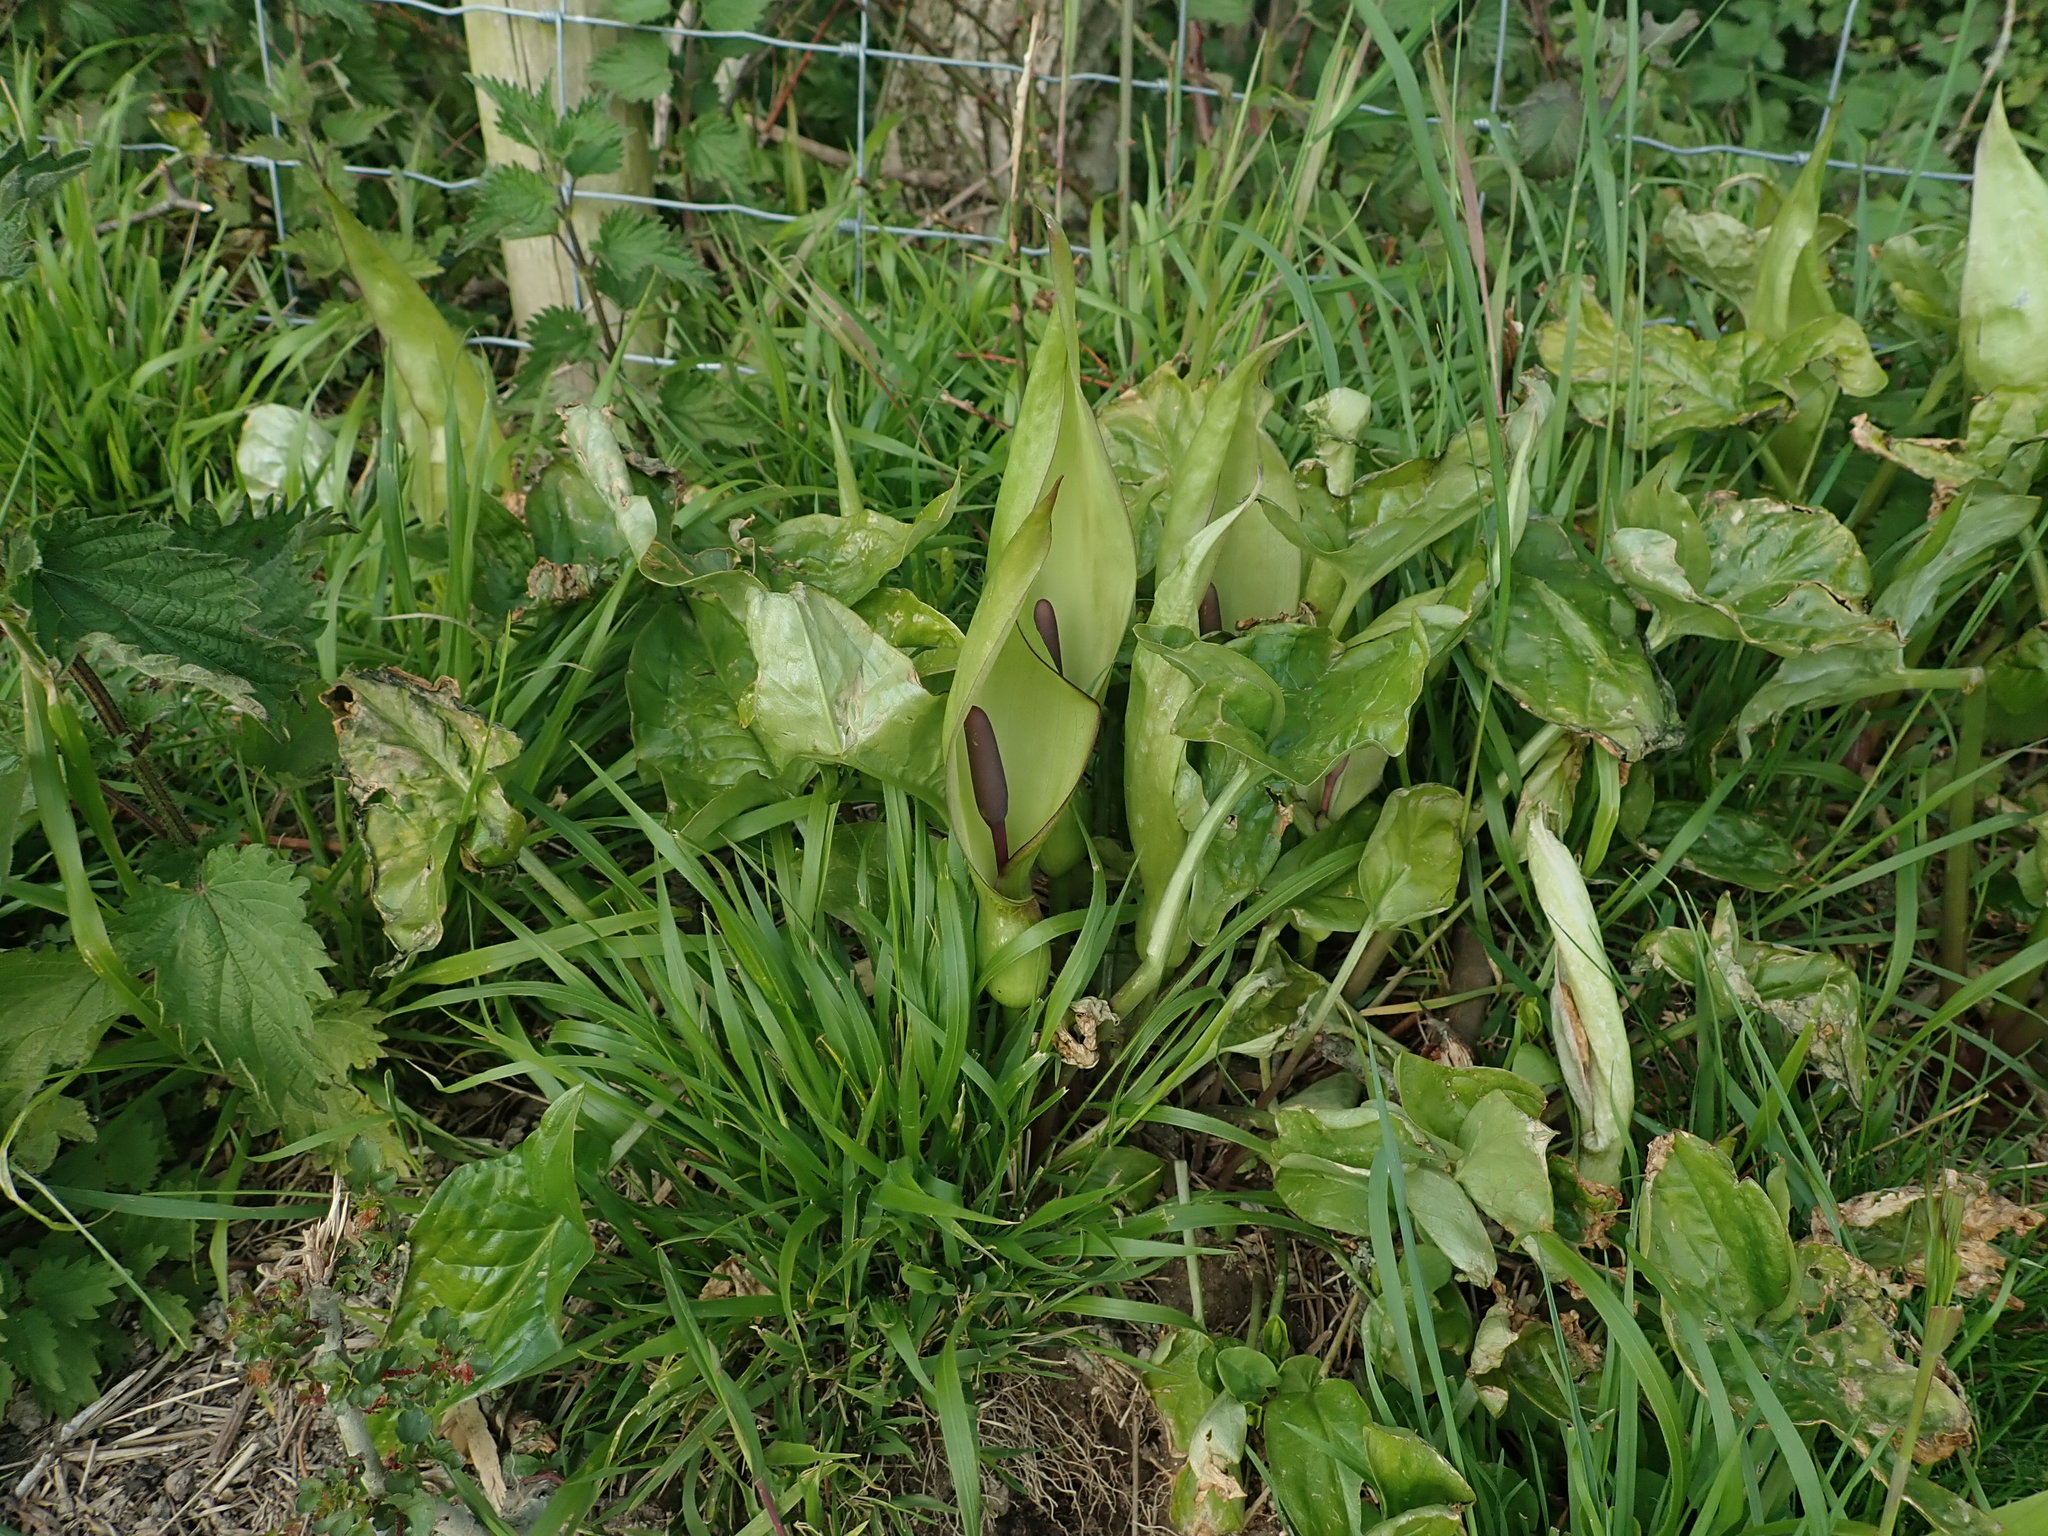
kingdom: Plantae
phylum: Tracheophyta
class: Liliopsida
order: Alismatales
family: Araceae
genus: Arum
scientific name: Arum maculatum
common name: Lords-and-ladies
